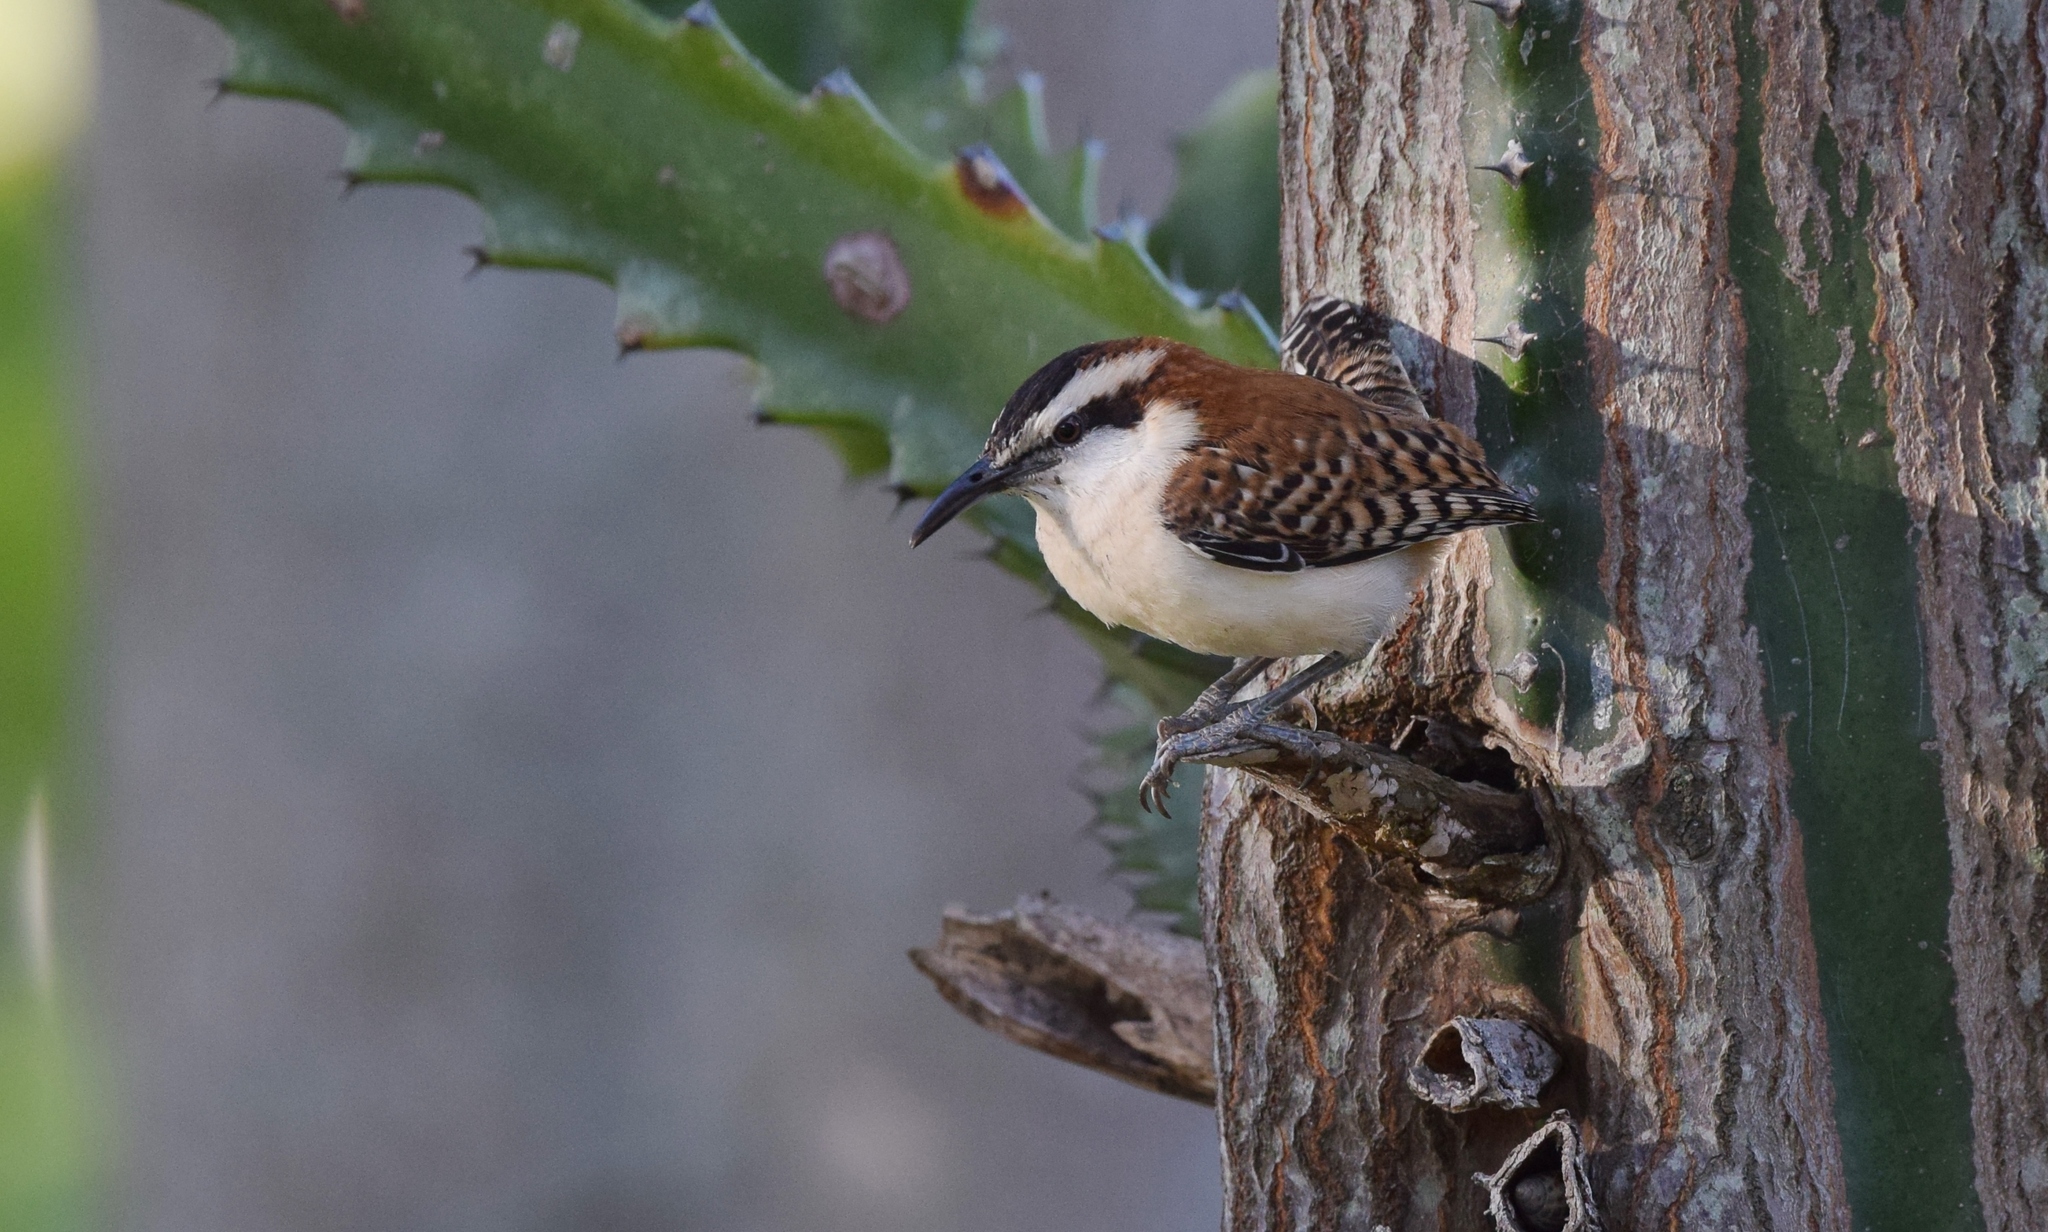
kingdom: Animalia
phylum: Chordata
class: Aves
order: Passeriformes
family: Troglodytidae
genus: Campylorhynchus
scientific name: Campylorhynchus rufinucha
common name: Rufous-naped wren
